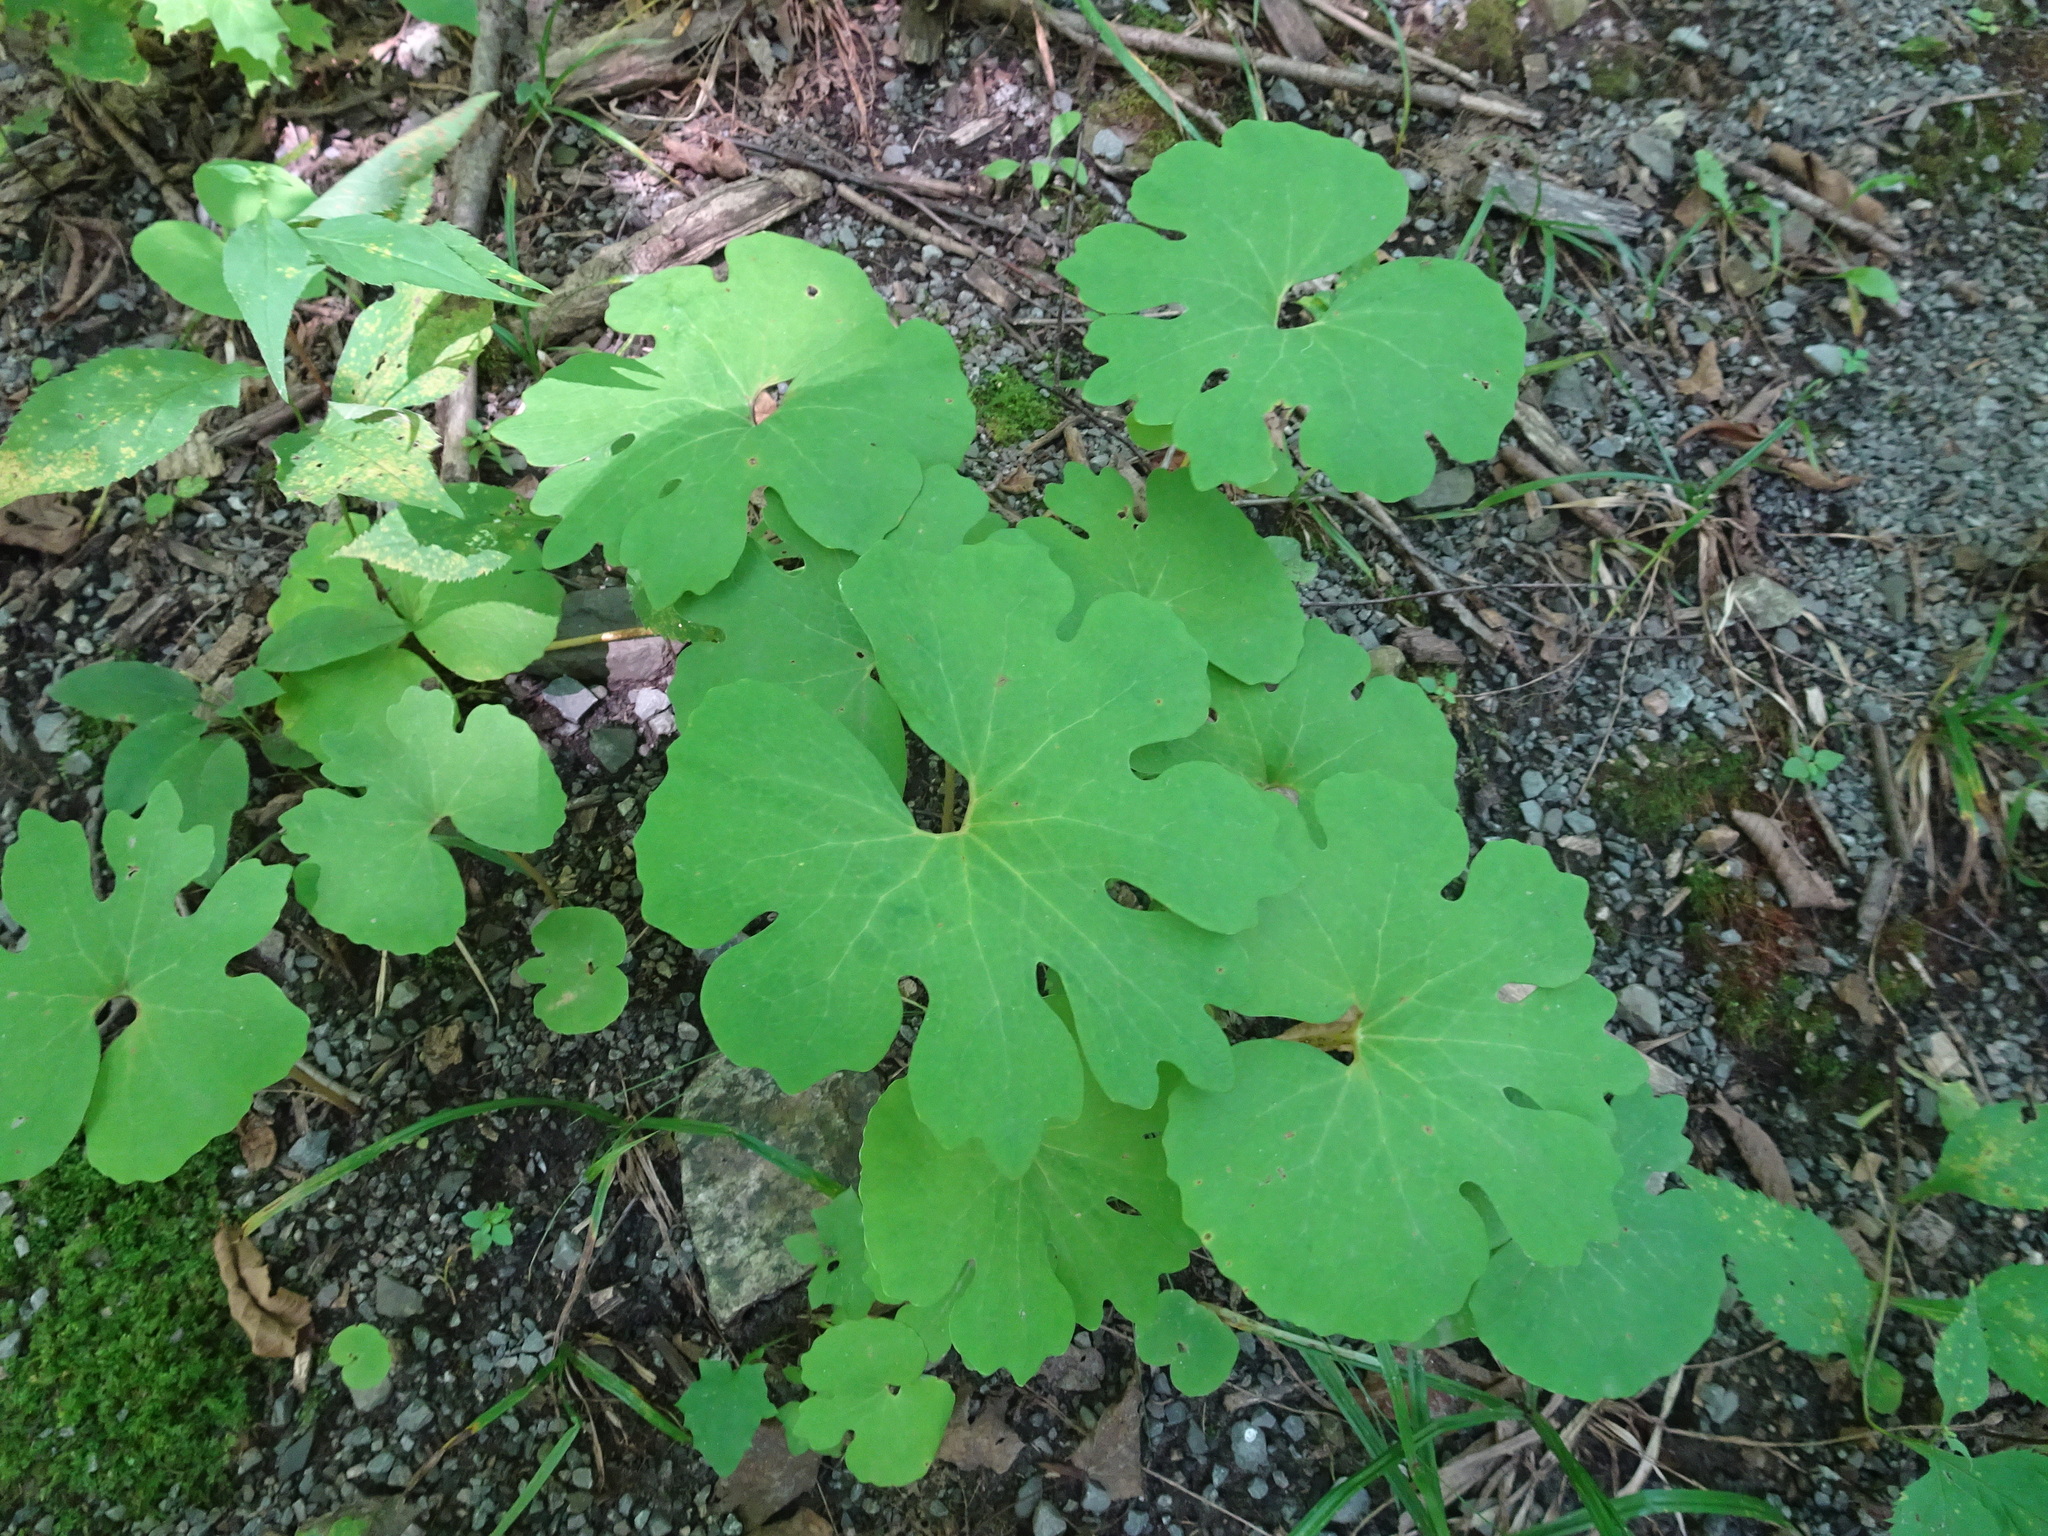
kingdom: Plantae
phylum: Tracheophyta
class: Magnoliopsida
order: Ranunculales
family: Papaveraceae
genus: Sanguinaria
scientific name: Sanguinaria canadensis
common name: Bloodroot
